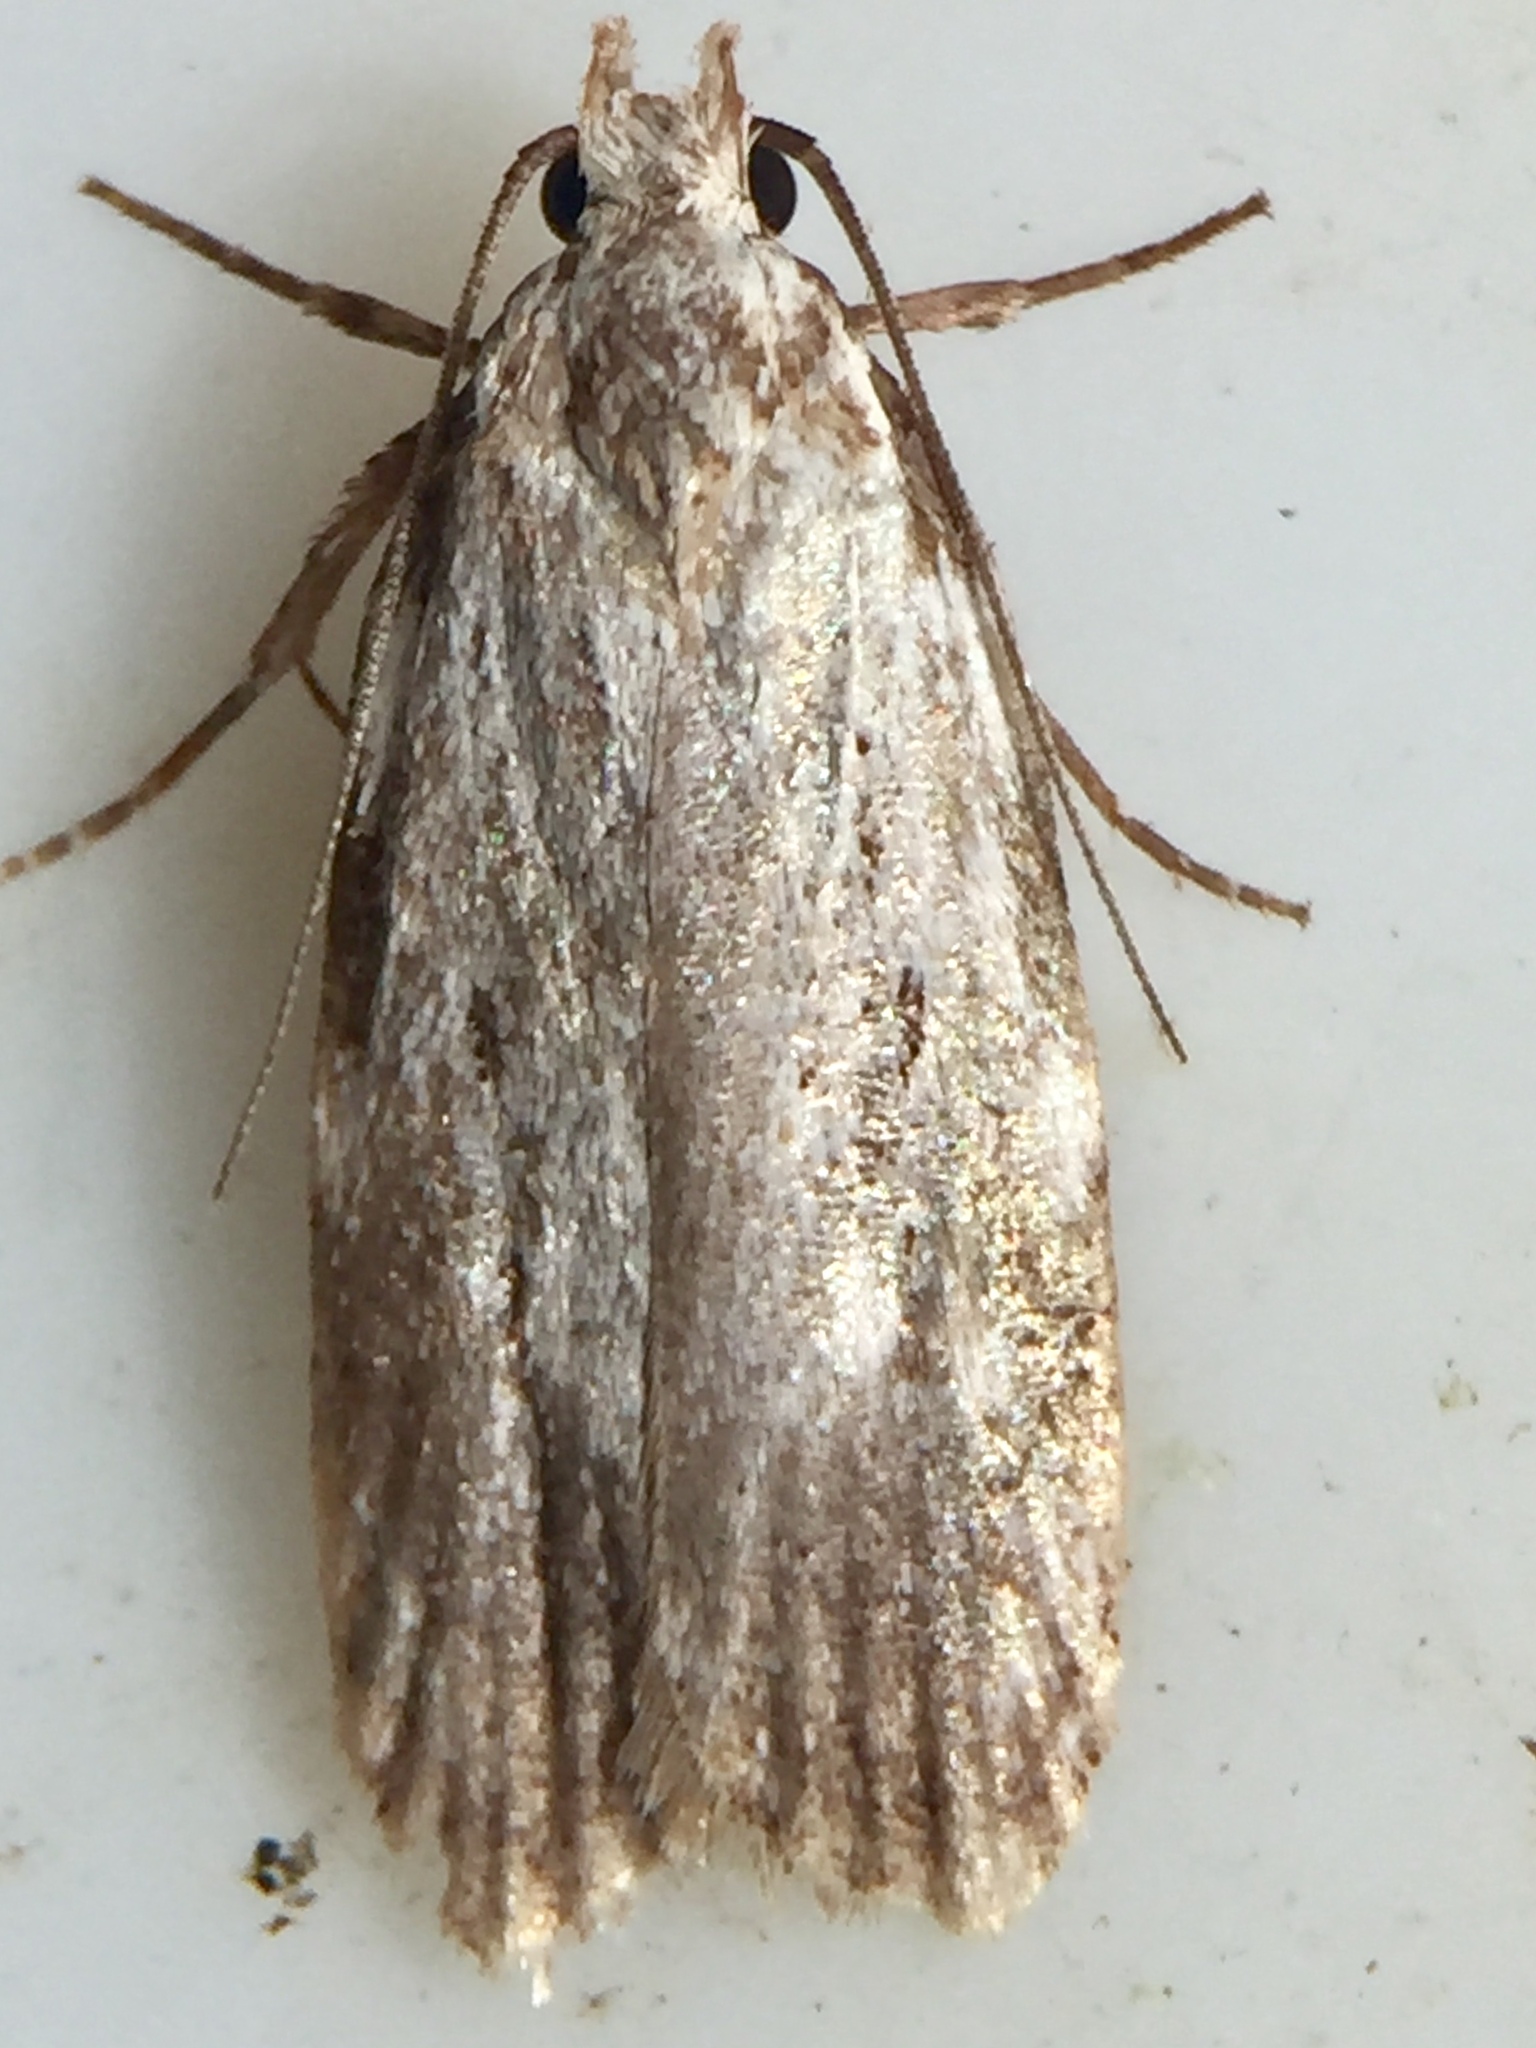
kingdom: Animalia
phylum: Arthropoda
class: Insecta
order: Lepidoptera
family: Oecophoridae
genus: Izatha
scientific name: Izatha balanophora
